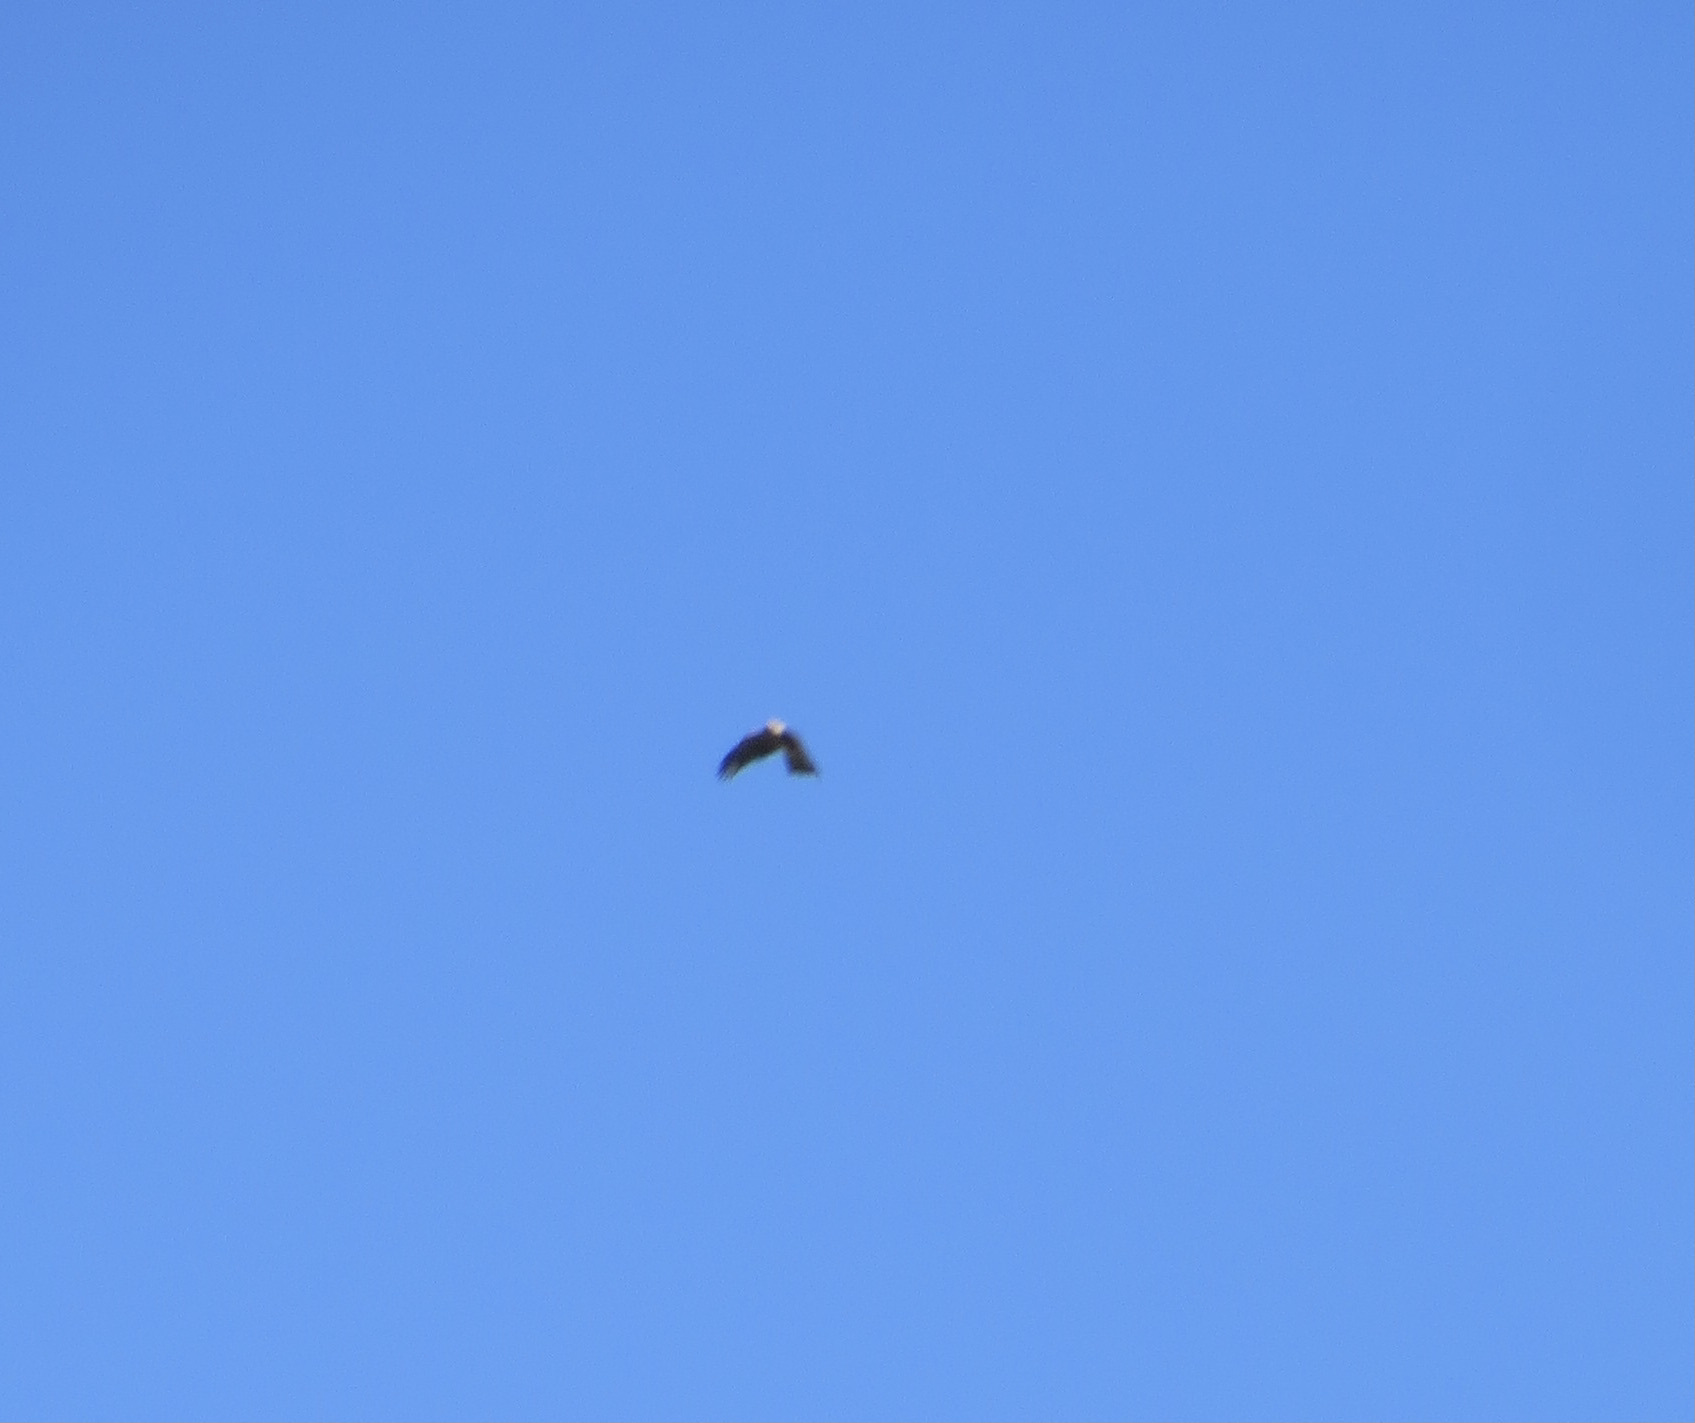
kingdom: Animalia
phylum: Chordata
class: Aves
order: Accipitriformes
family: Accipitridae
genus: Accipiter
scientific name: Accipiter striatus
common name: Sharp-shinned hawk
